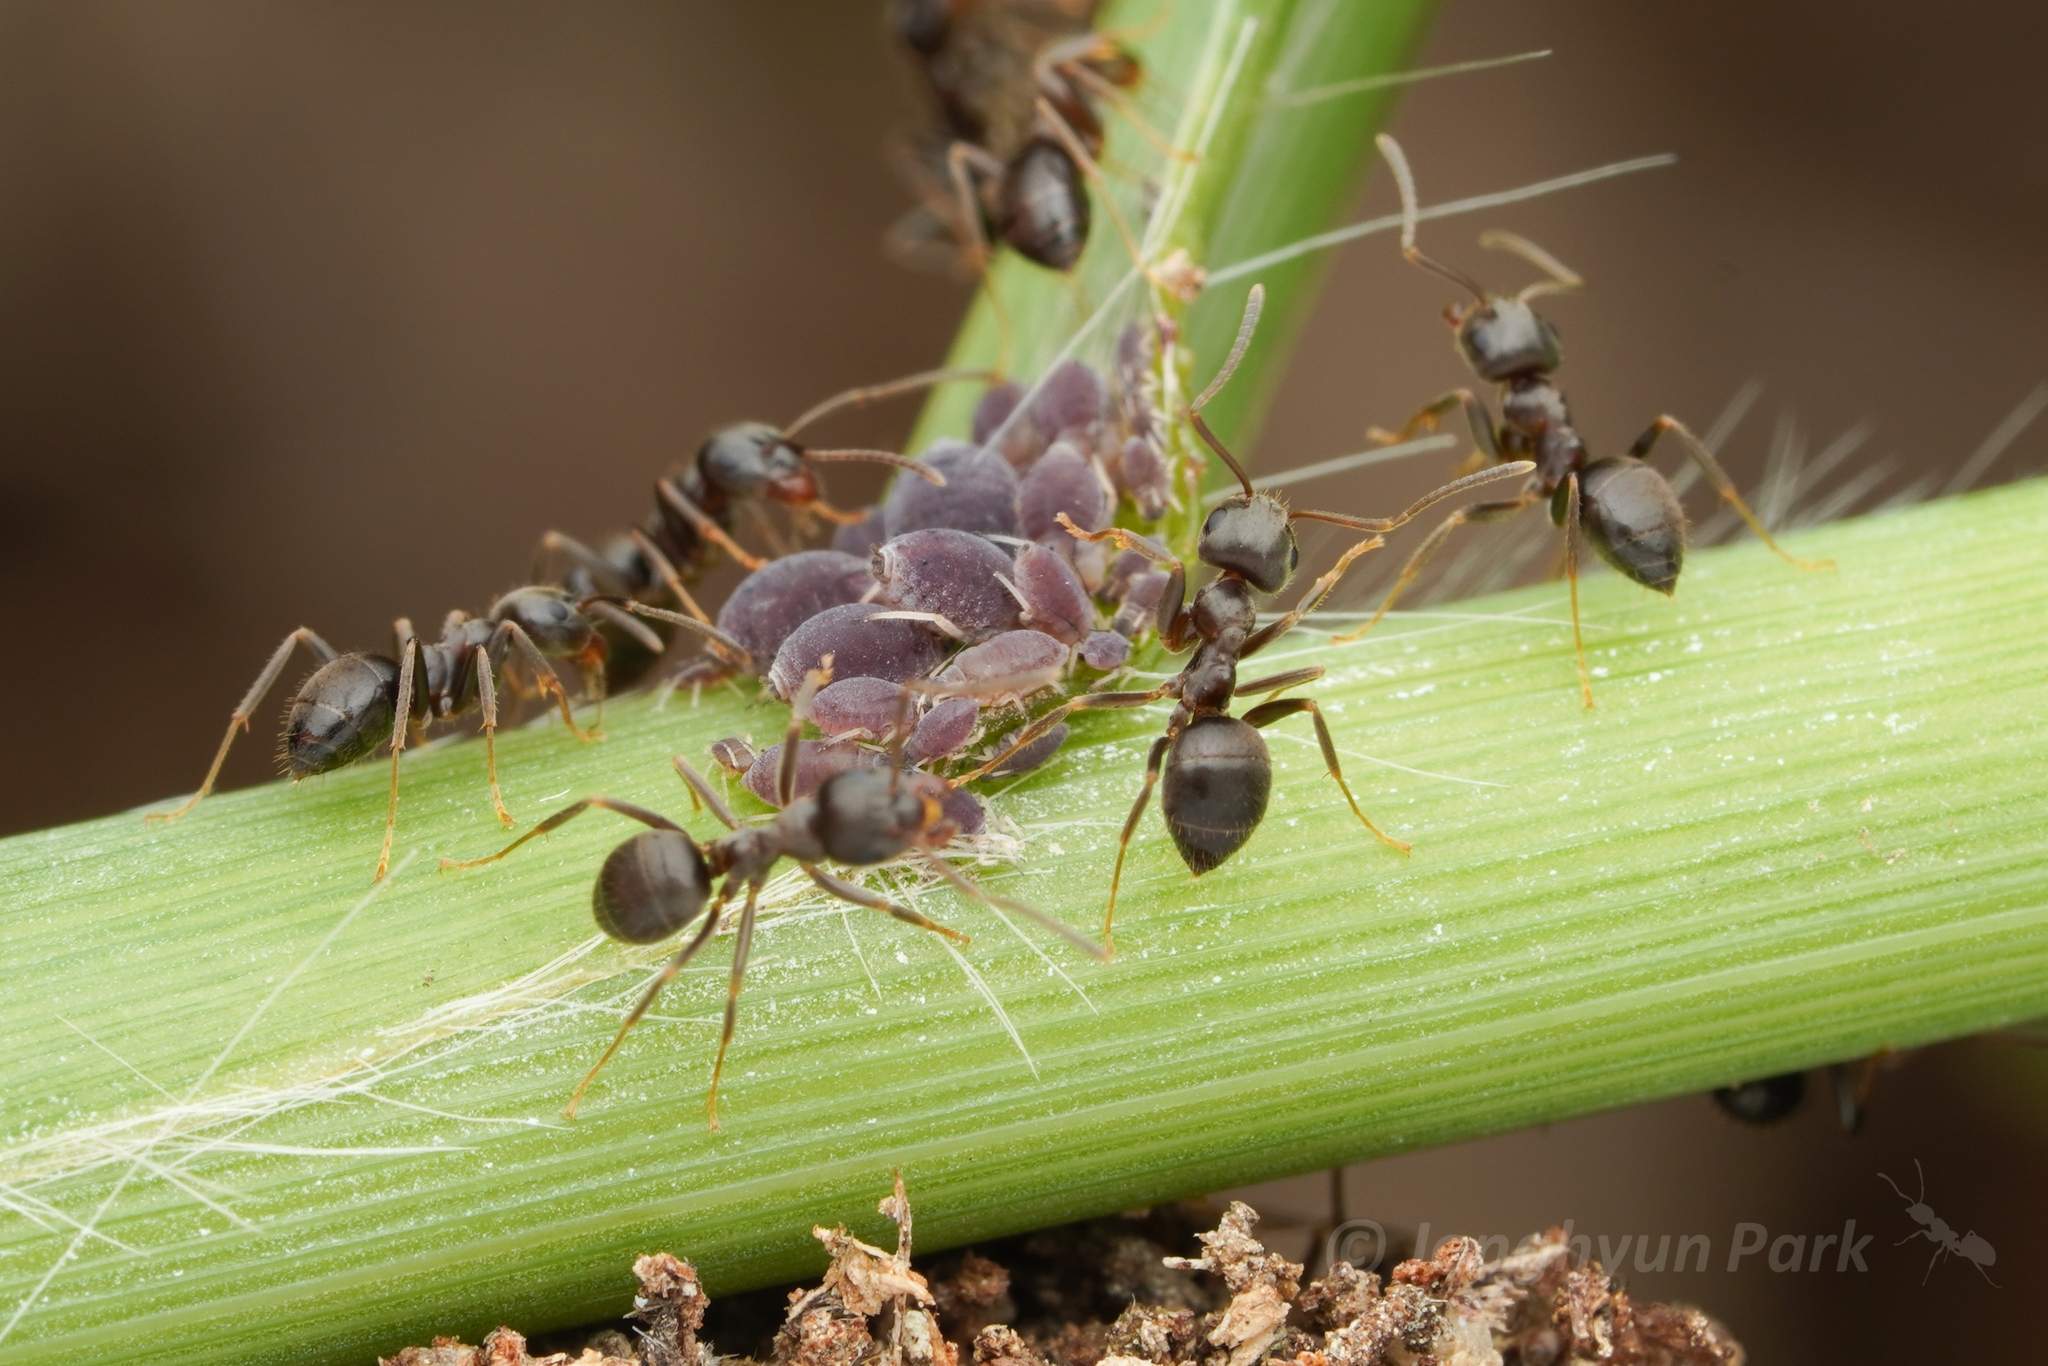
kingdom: Animalia
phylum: Arthropoda
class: Insecta
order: Hymenoptera
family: Formicidae
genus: Lasius
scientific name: Lasius japonicus
